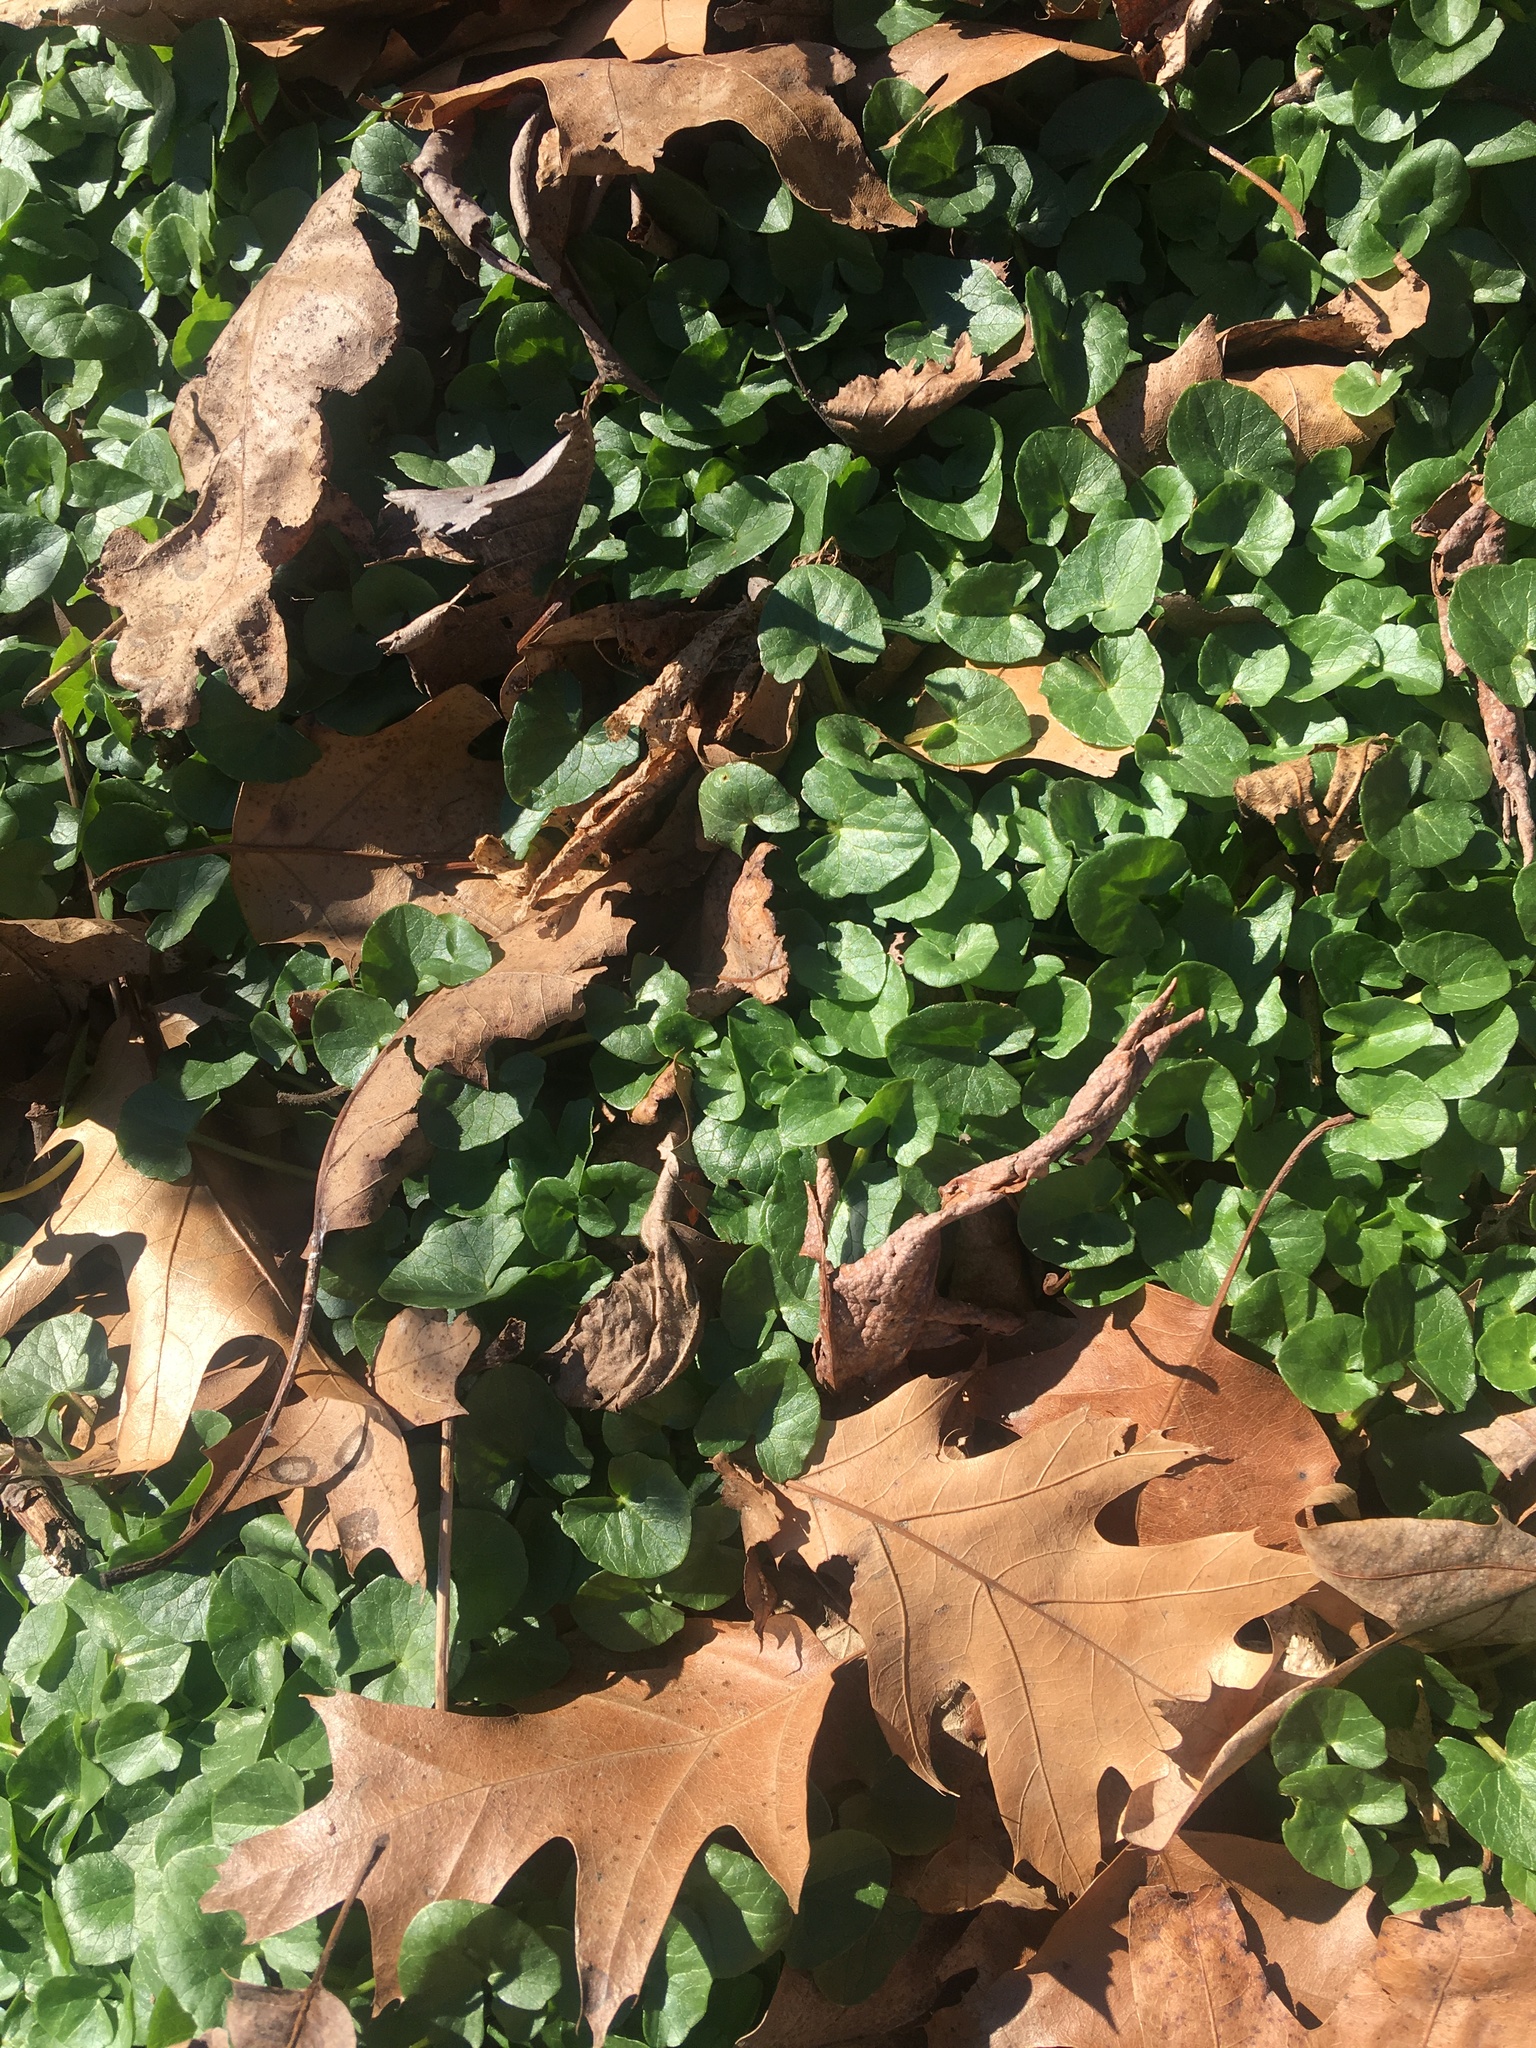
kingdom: Plantae
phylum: Tracheophyta
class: Magnoliopsida
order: Ranunculales
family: Ranunculaceae
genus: Ficaria
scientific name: Ficaria verna
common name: Lesser celandine
